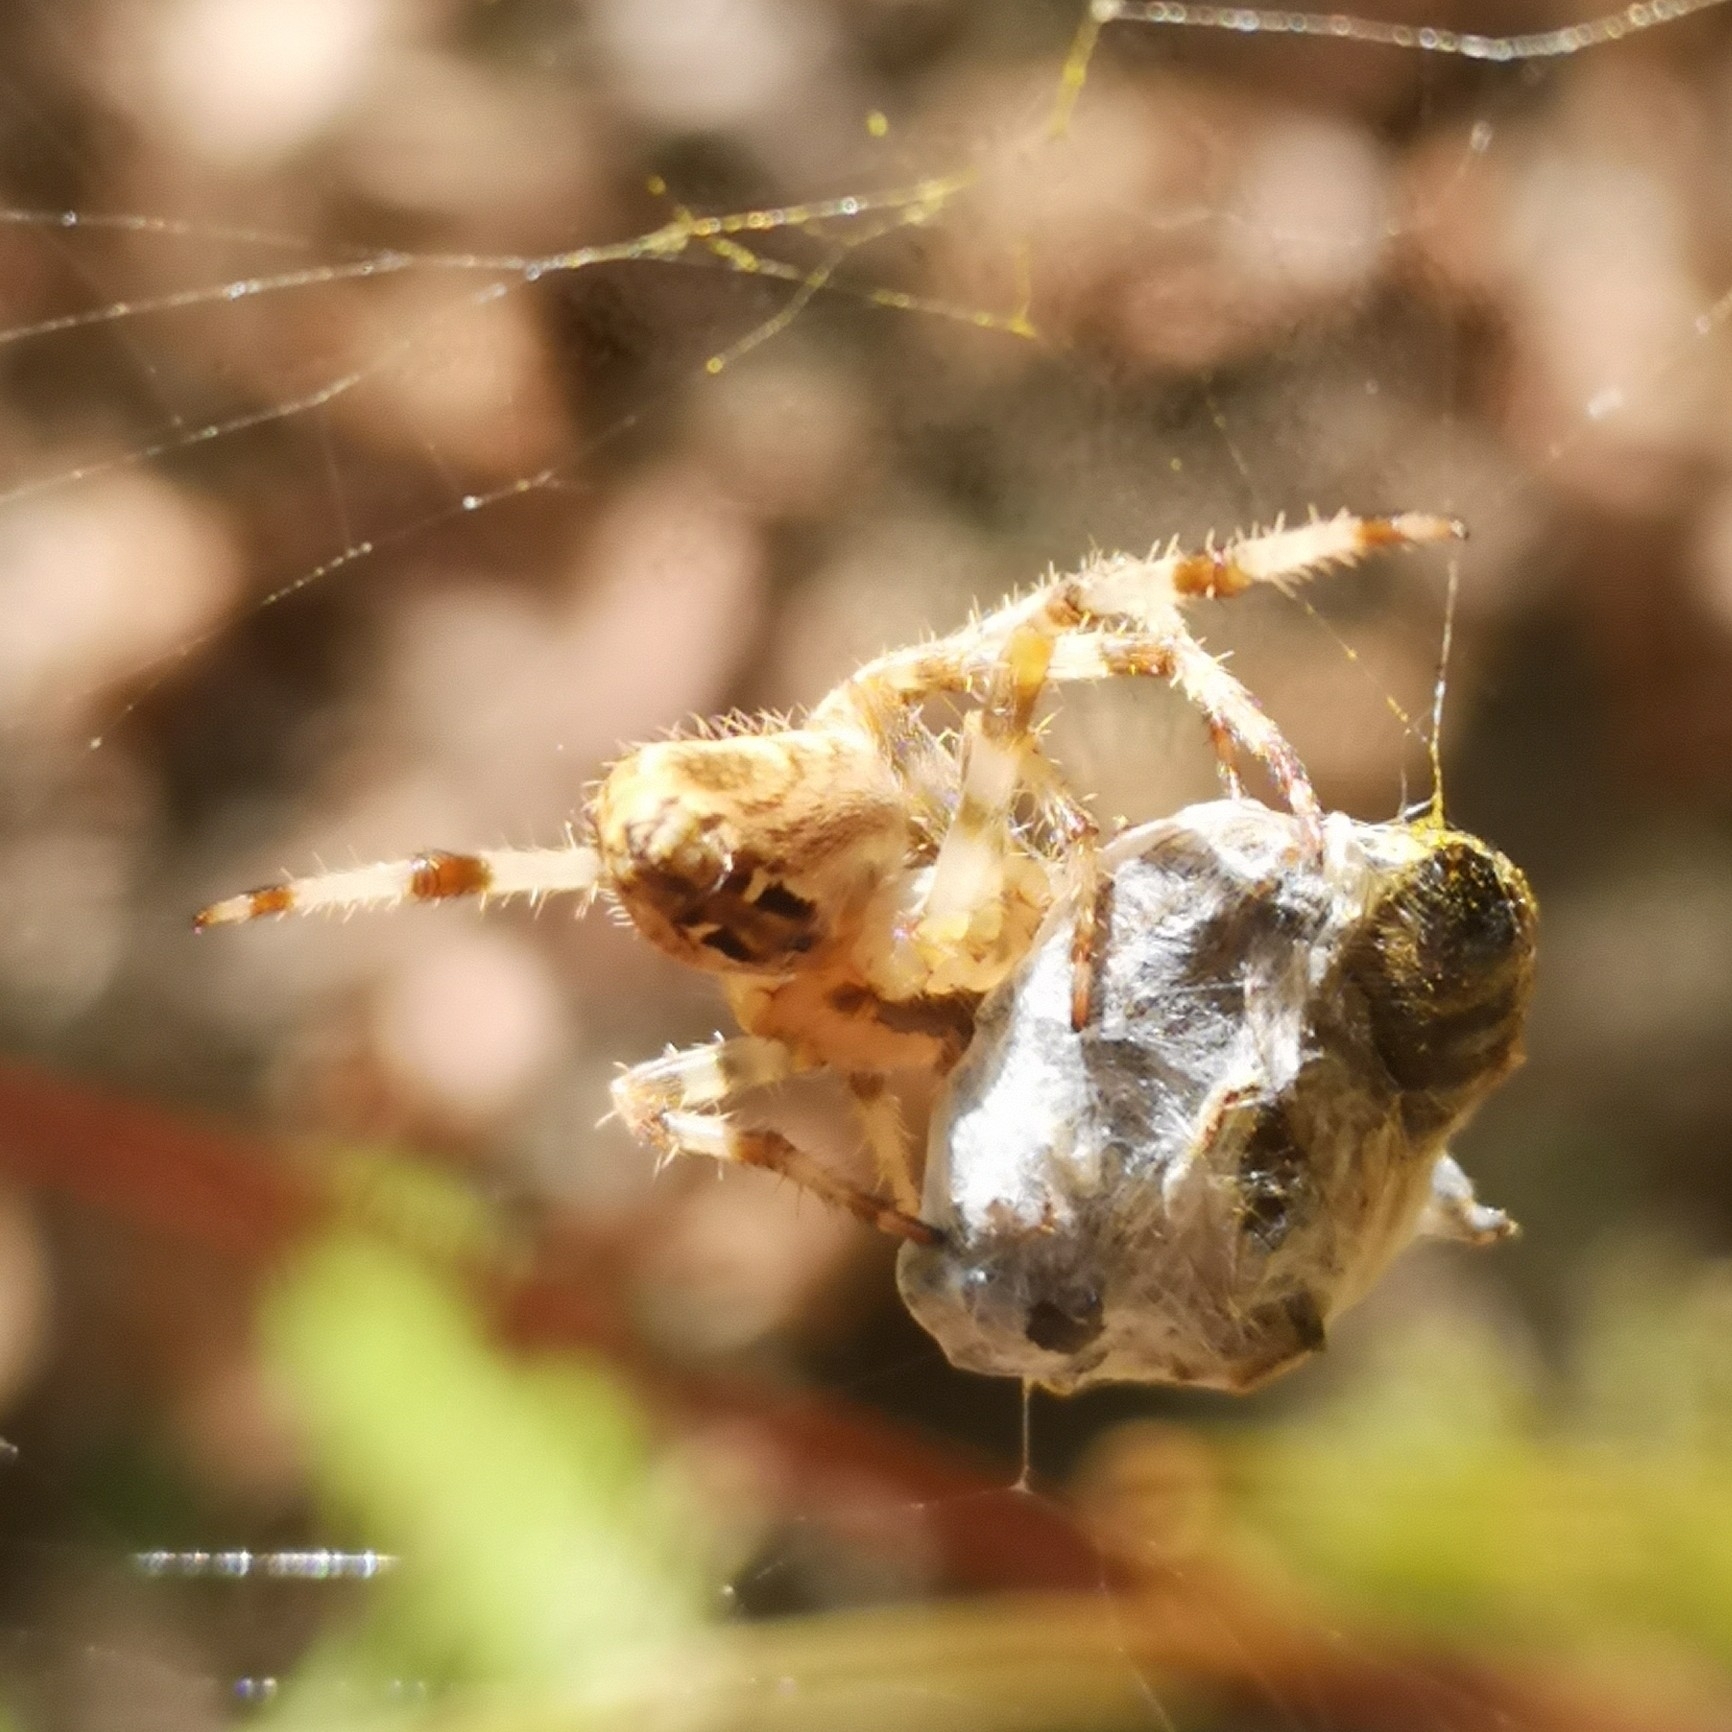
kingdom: Animalia
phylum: Arthropoda
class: Arachnida
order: Araneae
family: Araneidae
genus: Araneus
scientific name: Araneus diadematus
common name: Cross orbweaver
